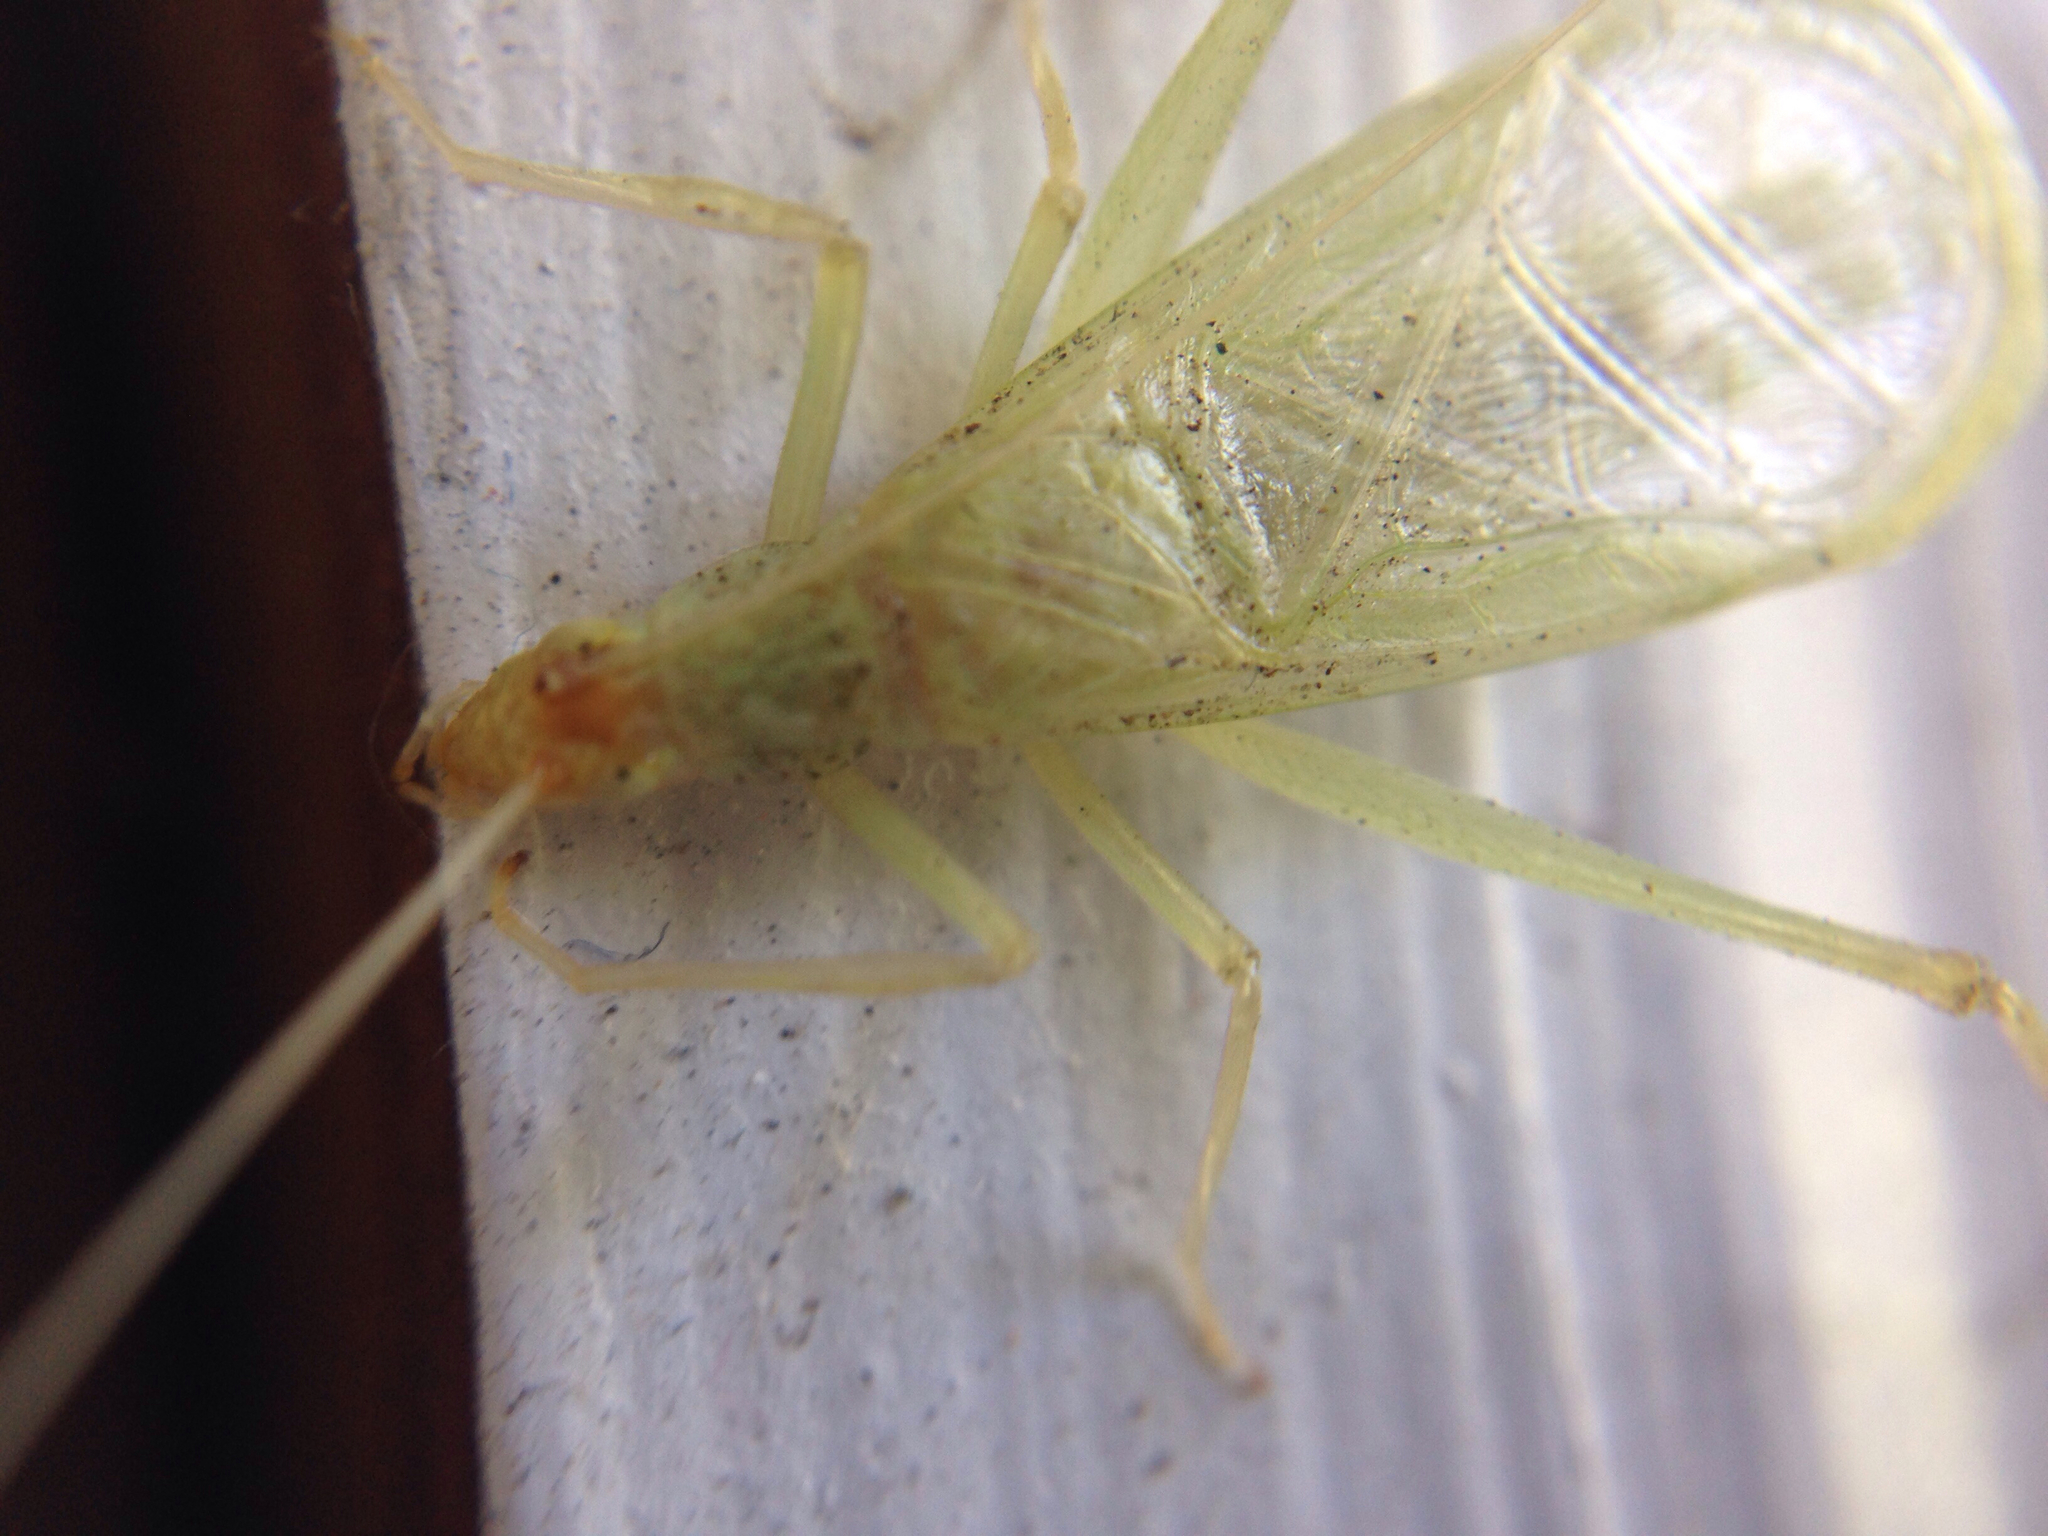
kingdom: Animalia
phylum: Arthropoda
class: Insecta
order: Orthoptera
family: Gryllidae
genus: Oecanthus
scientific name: Oecanthus fultoni
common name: Snowy tree cricket
